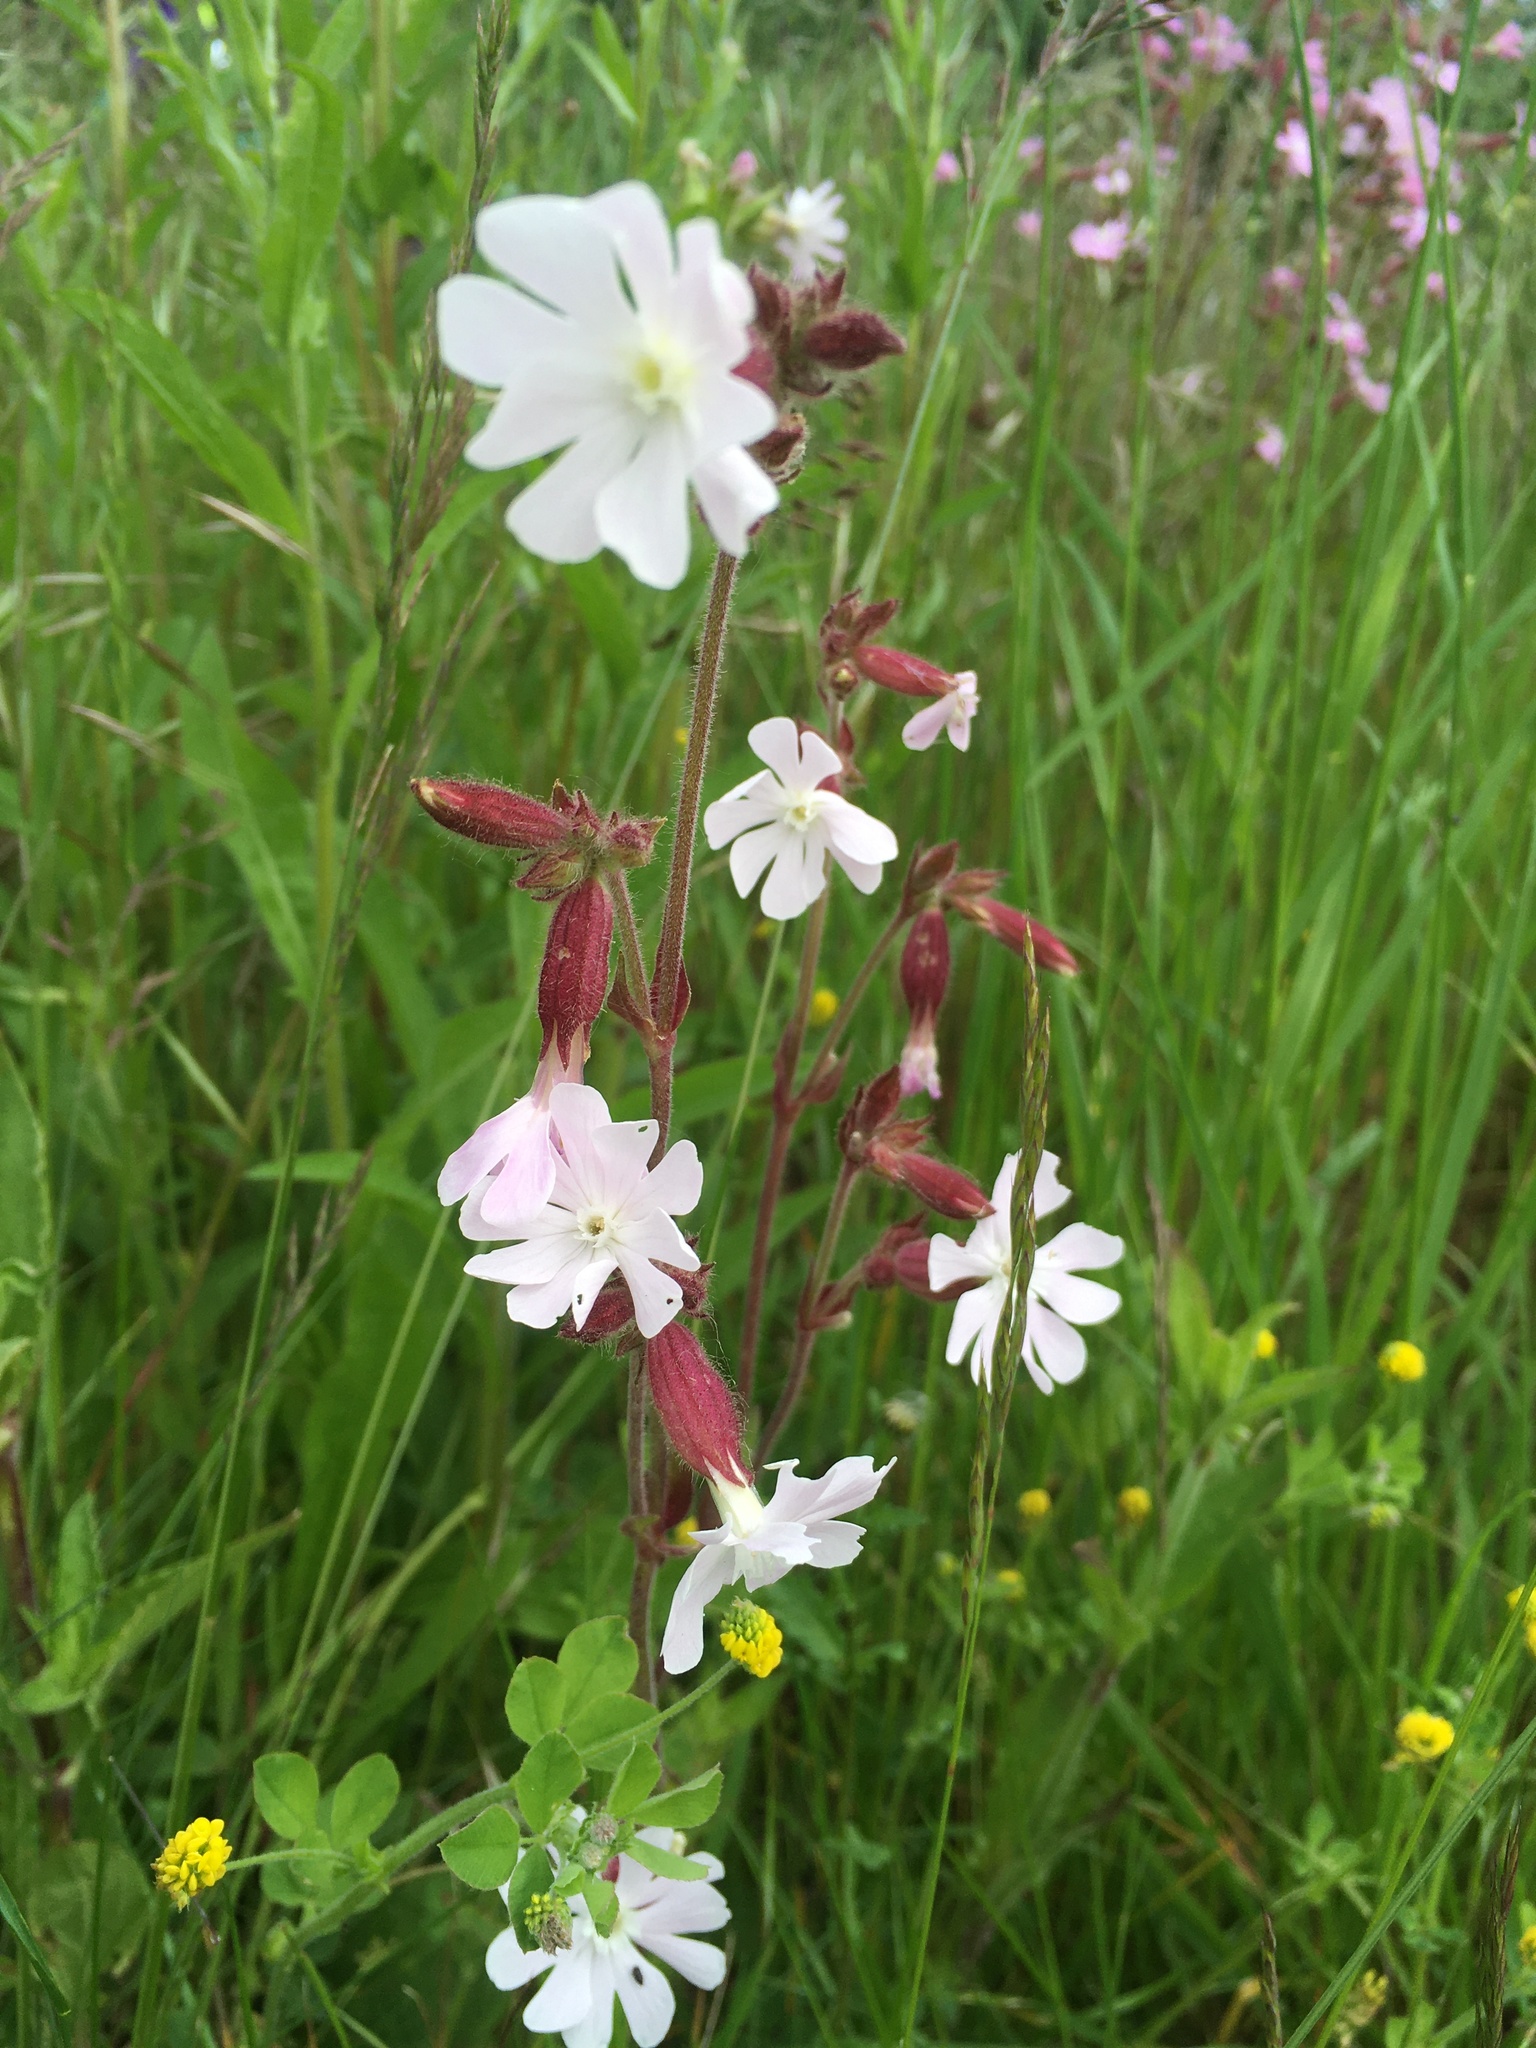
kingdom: Plantae
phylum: Tracheophyta
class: Magnoliopsida
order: Caryophyllales
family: Caryophyllaceae
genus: Silene
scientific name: Silene latifolia
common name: White campion
